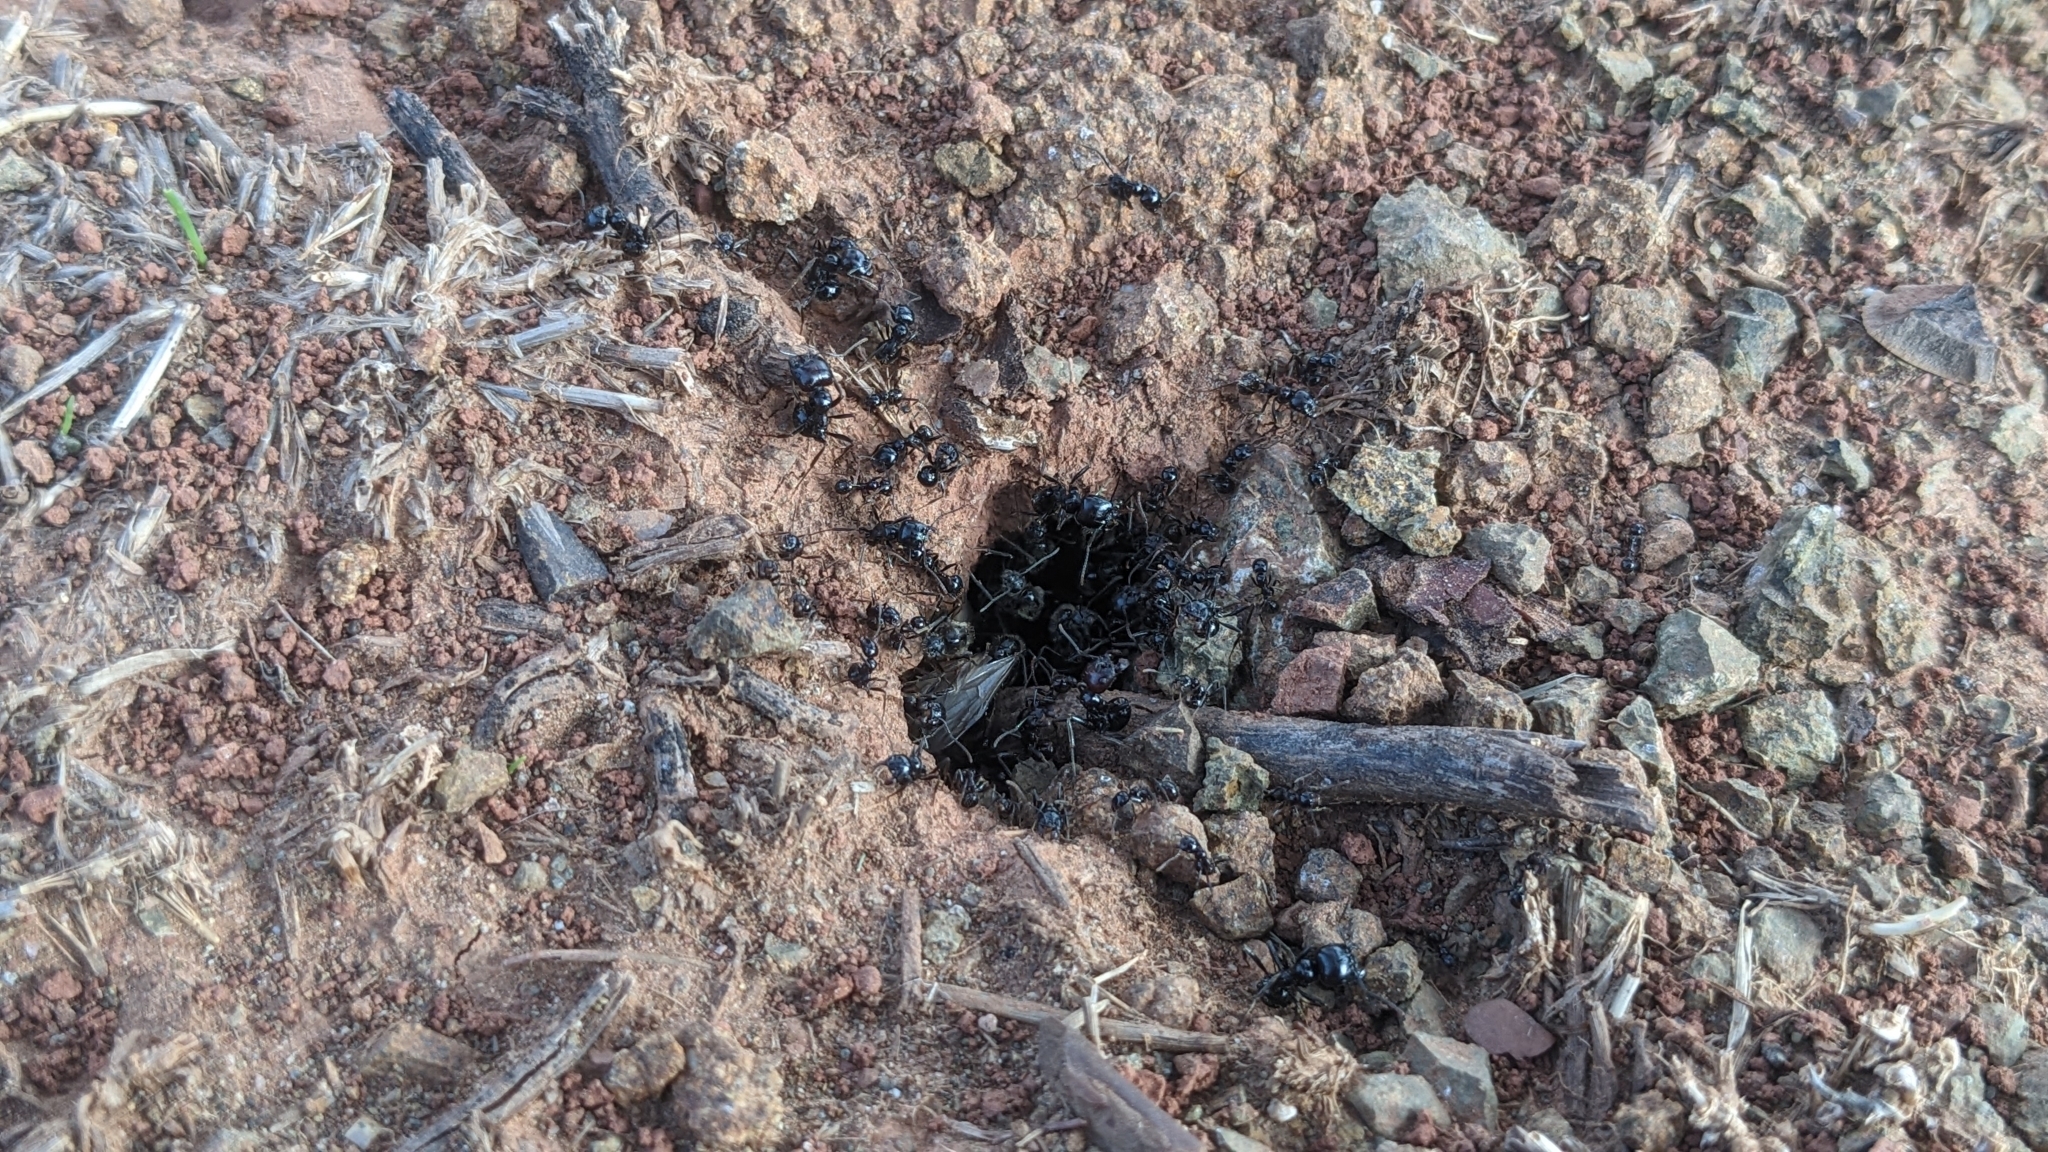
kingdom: Animalia
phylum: Arthropoda
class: Insecta
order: Hymenoptera
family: Formicidae
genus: Messor
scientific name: Messor barbarus
